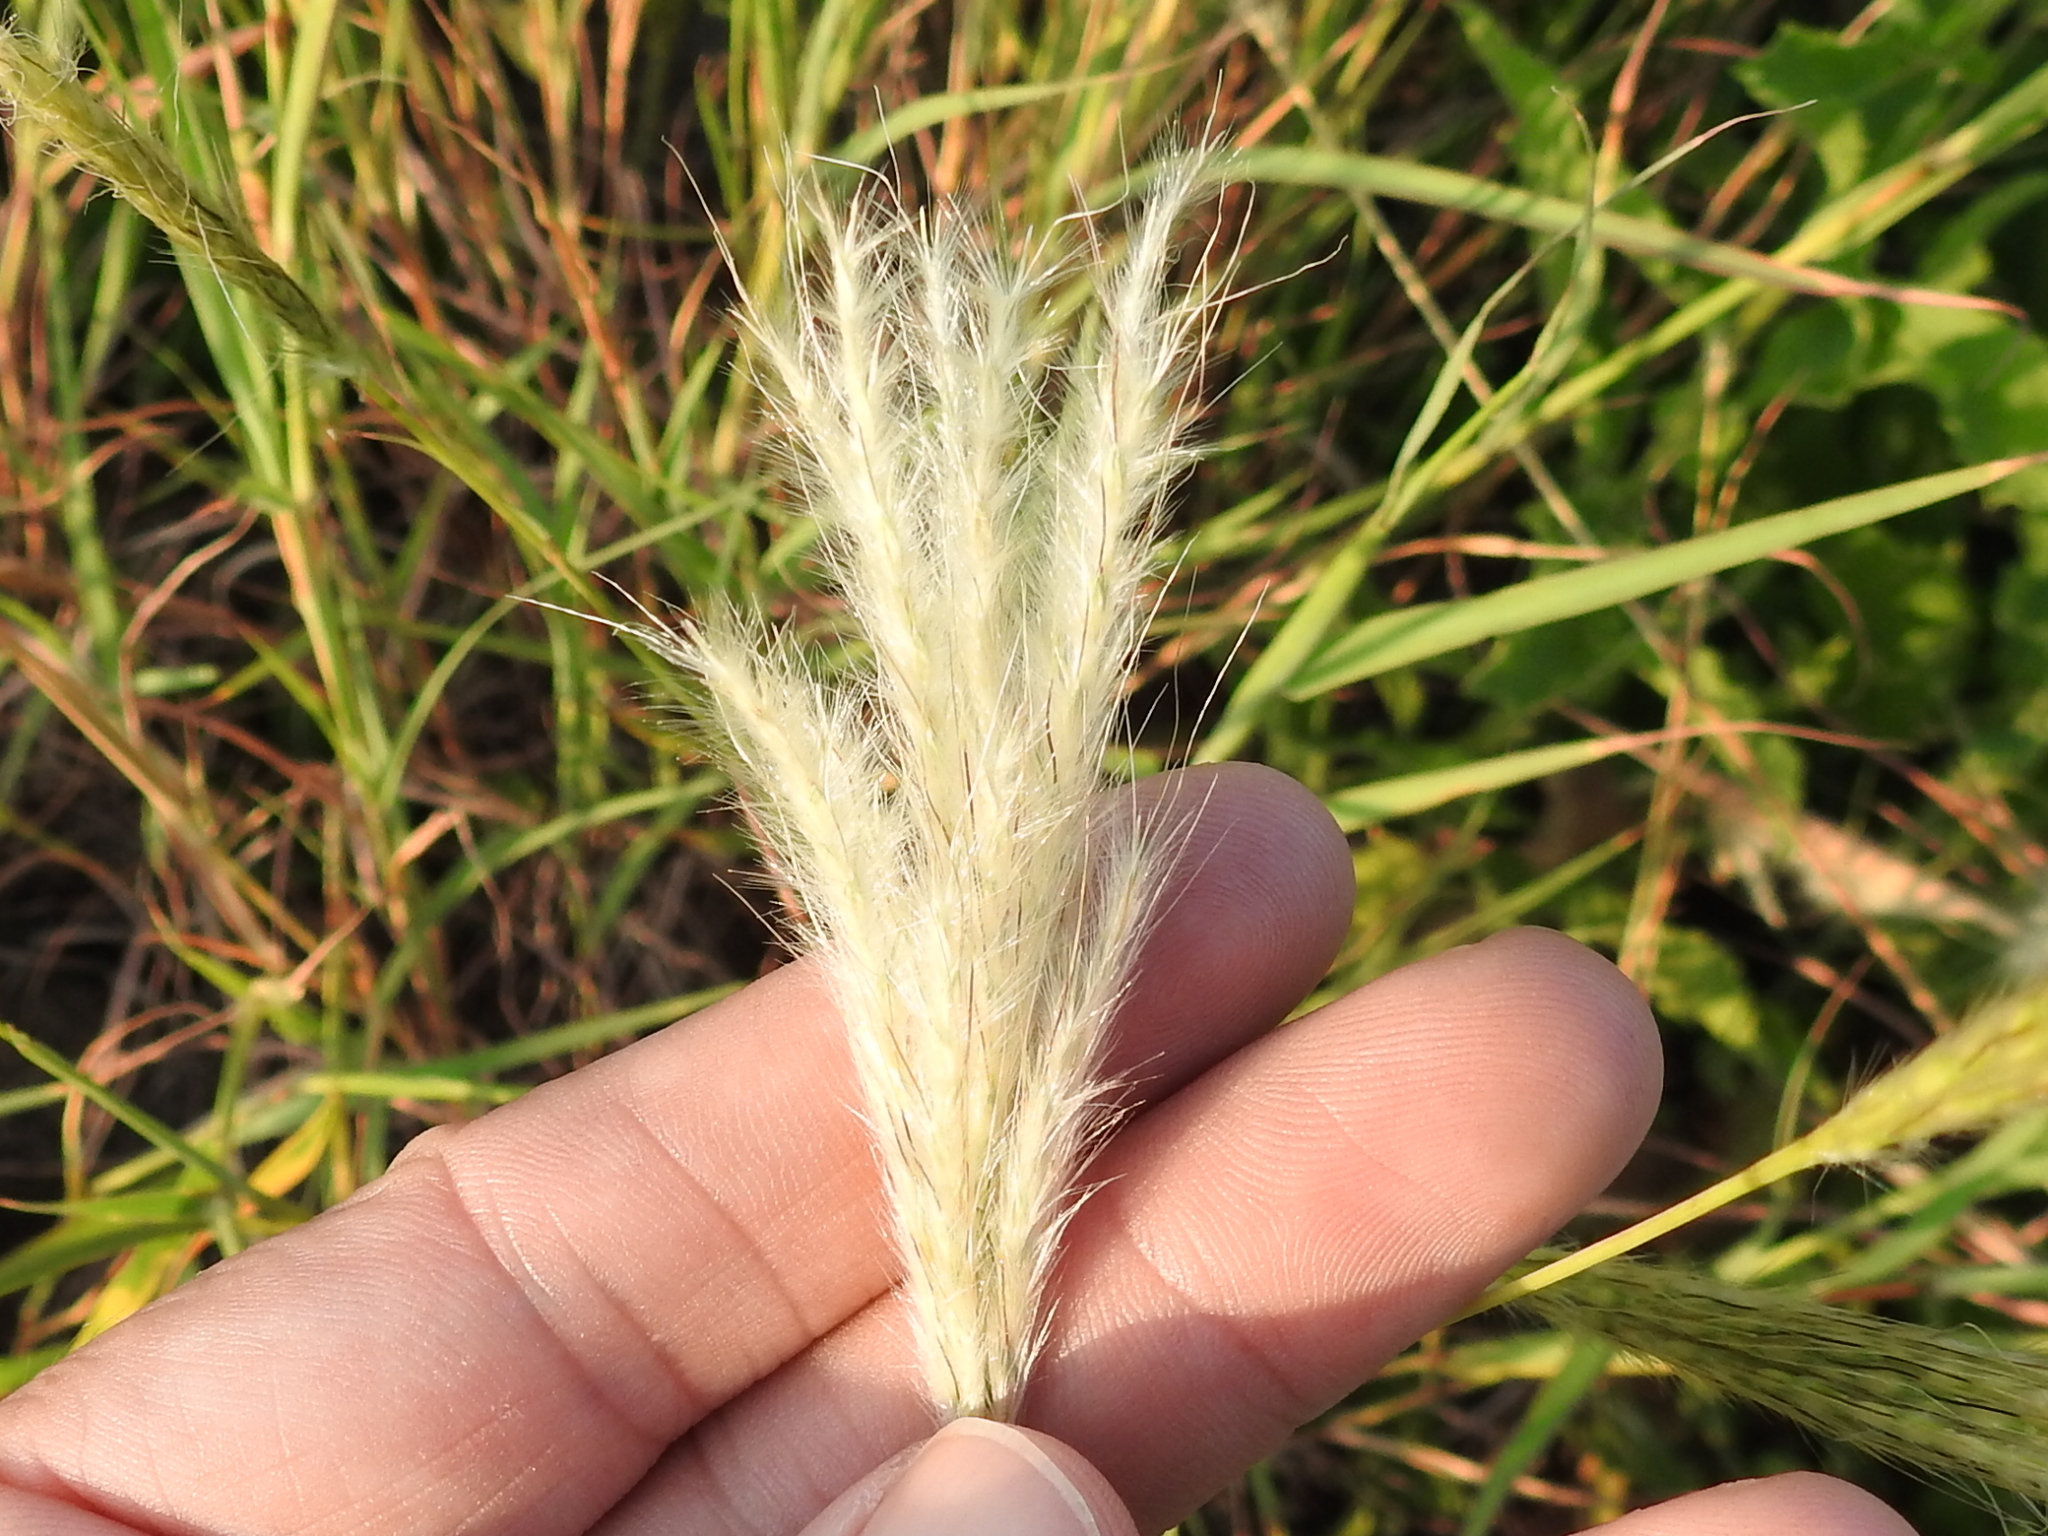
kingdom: Plantae
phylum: Tracheophyta
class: Liliopsida
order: Poales
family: Poaceae
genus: Bothriochloa
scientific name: Bothriochloa torreyana
